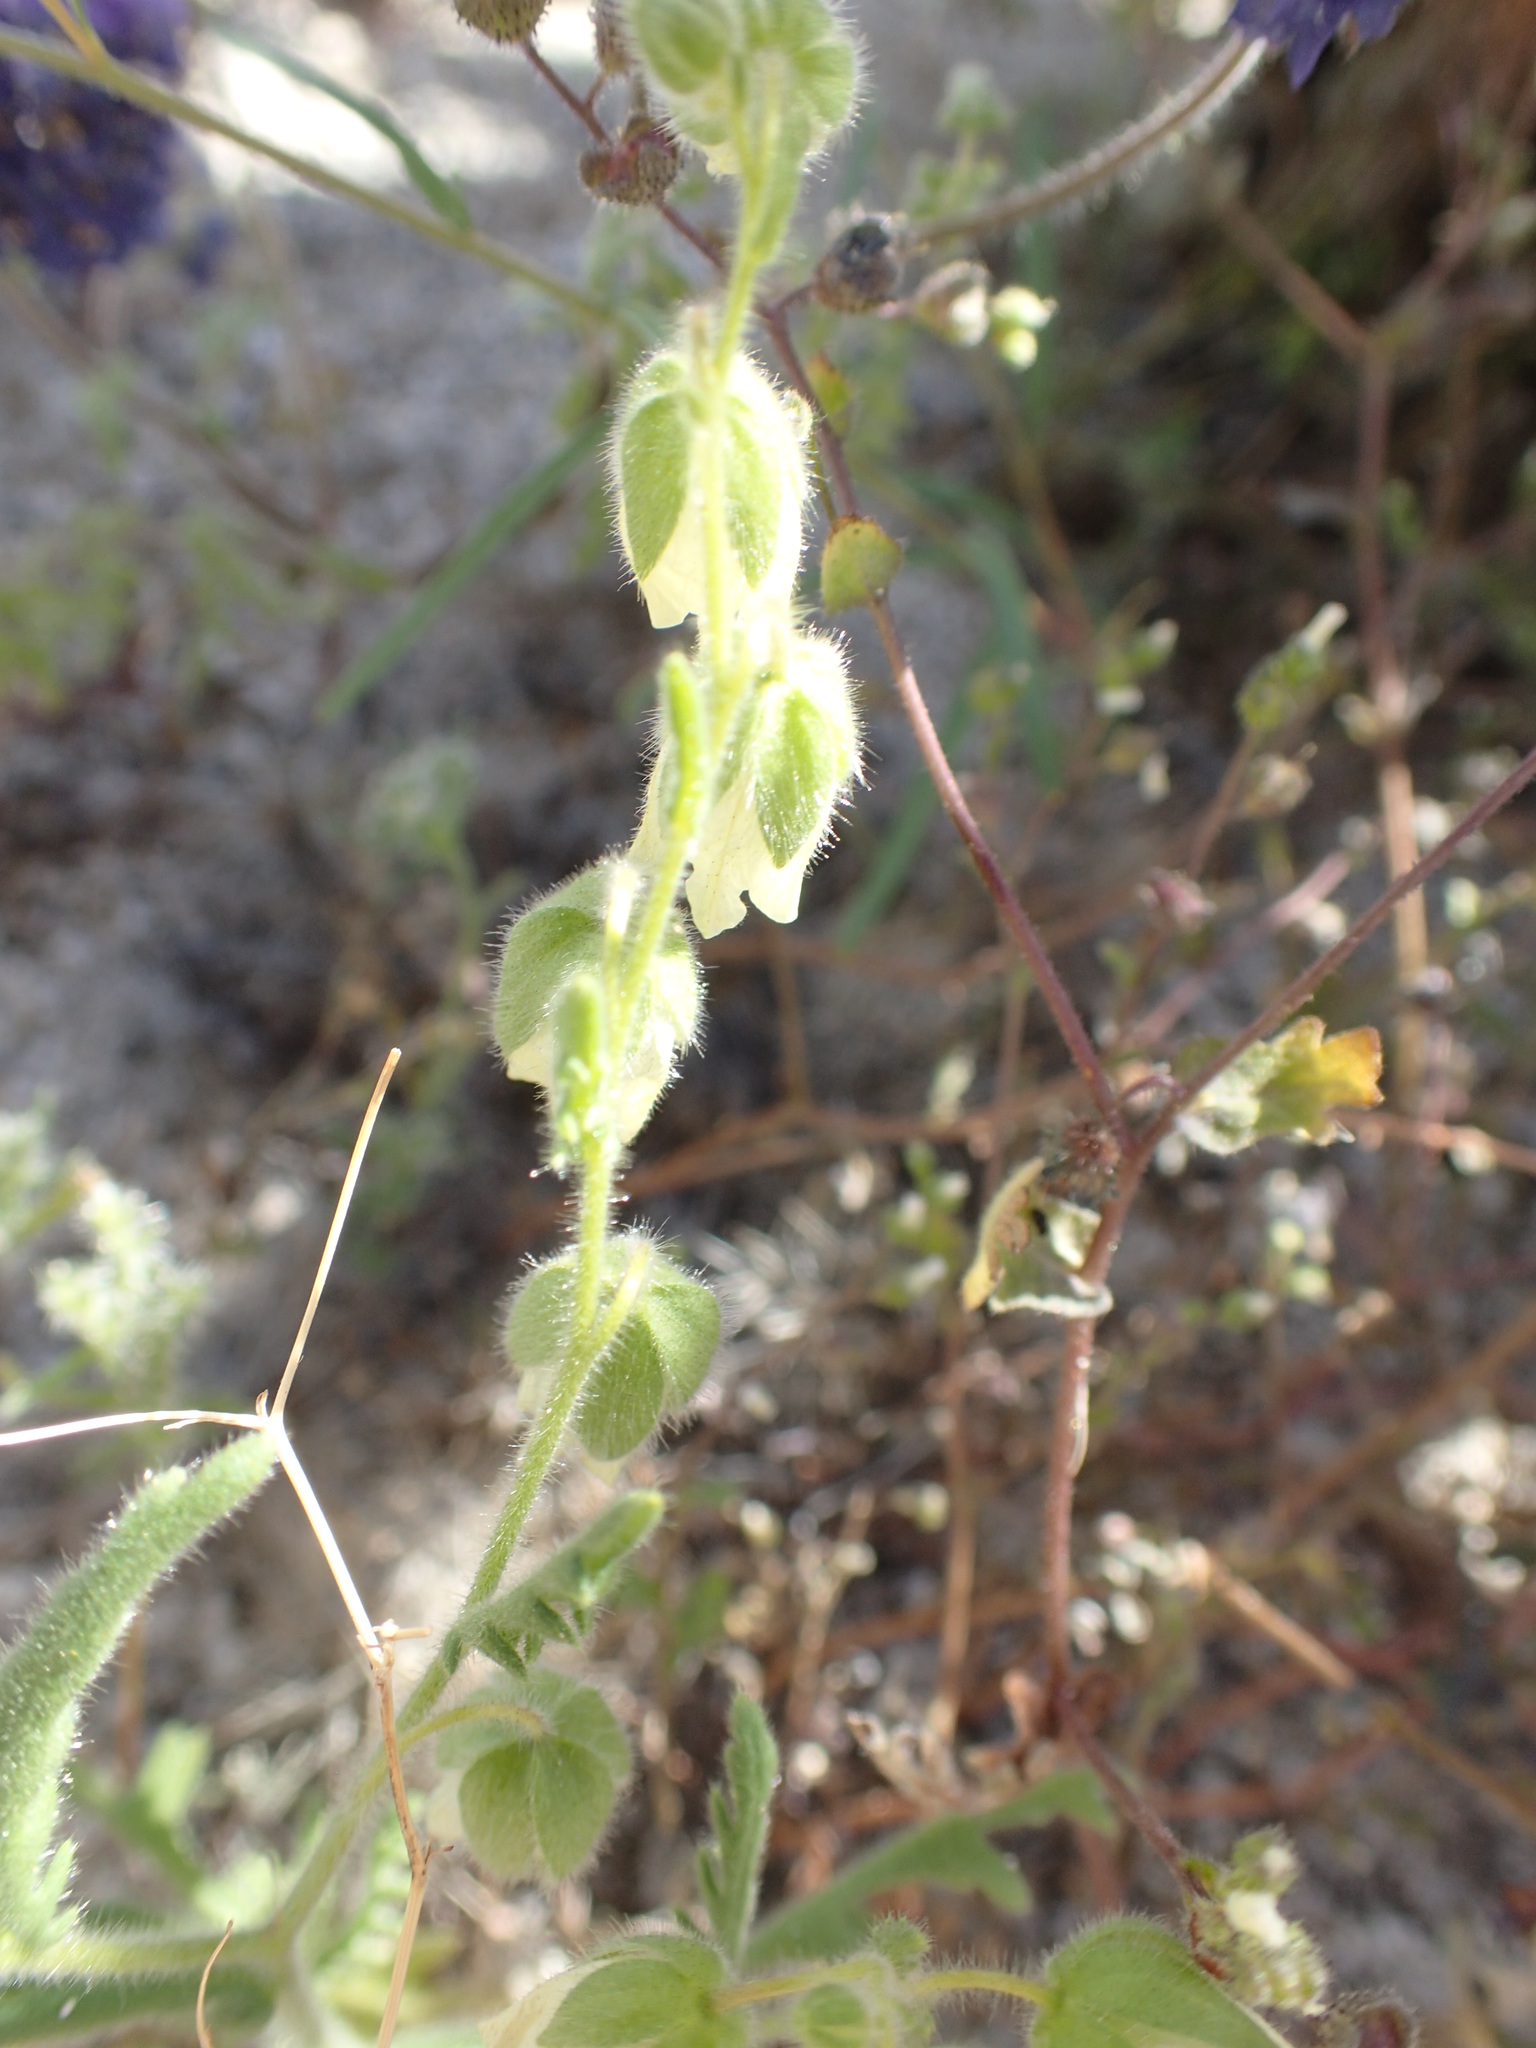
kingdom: Plantae
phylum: Tracheophyta
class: Magnoliopsida
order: Boraginales
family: Hydrophyllaceae
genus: Emmenanthe
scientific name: Emmenanthe penduliflora
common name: Whispering-bells
